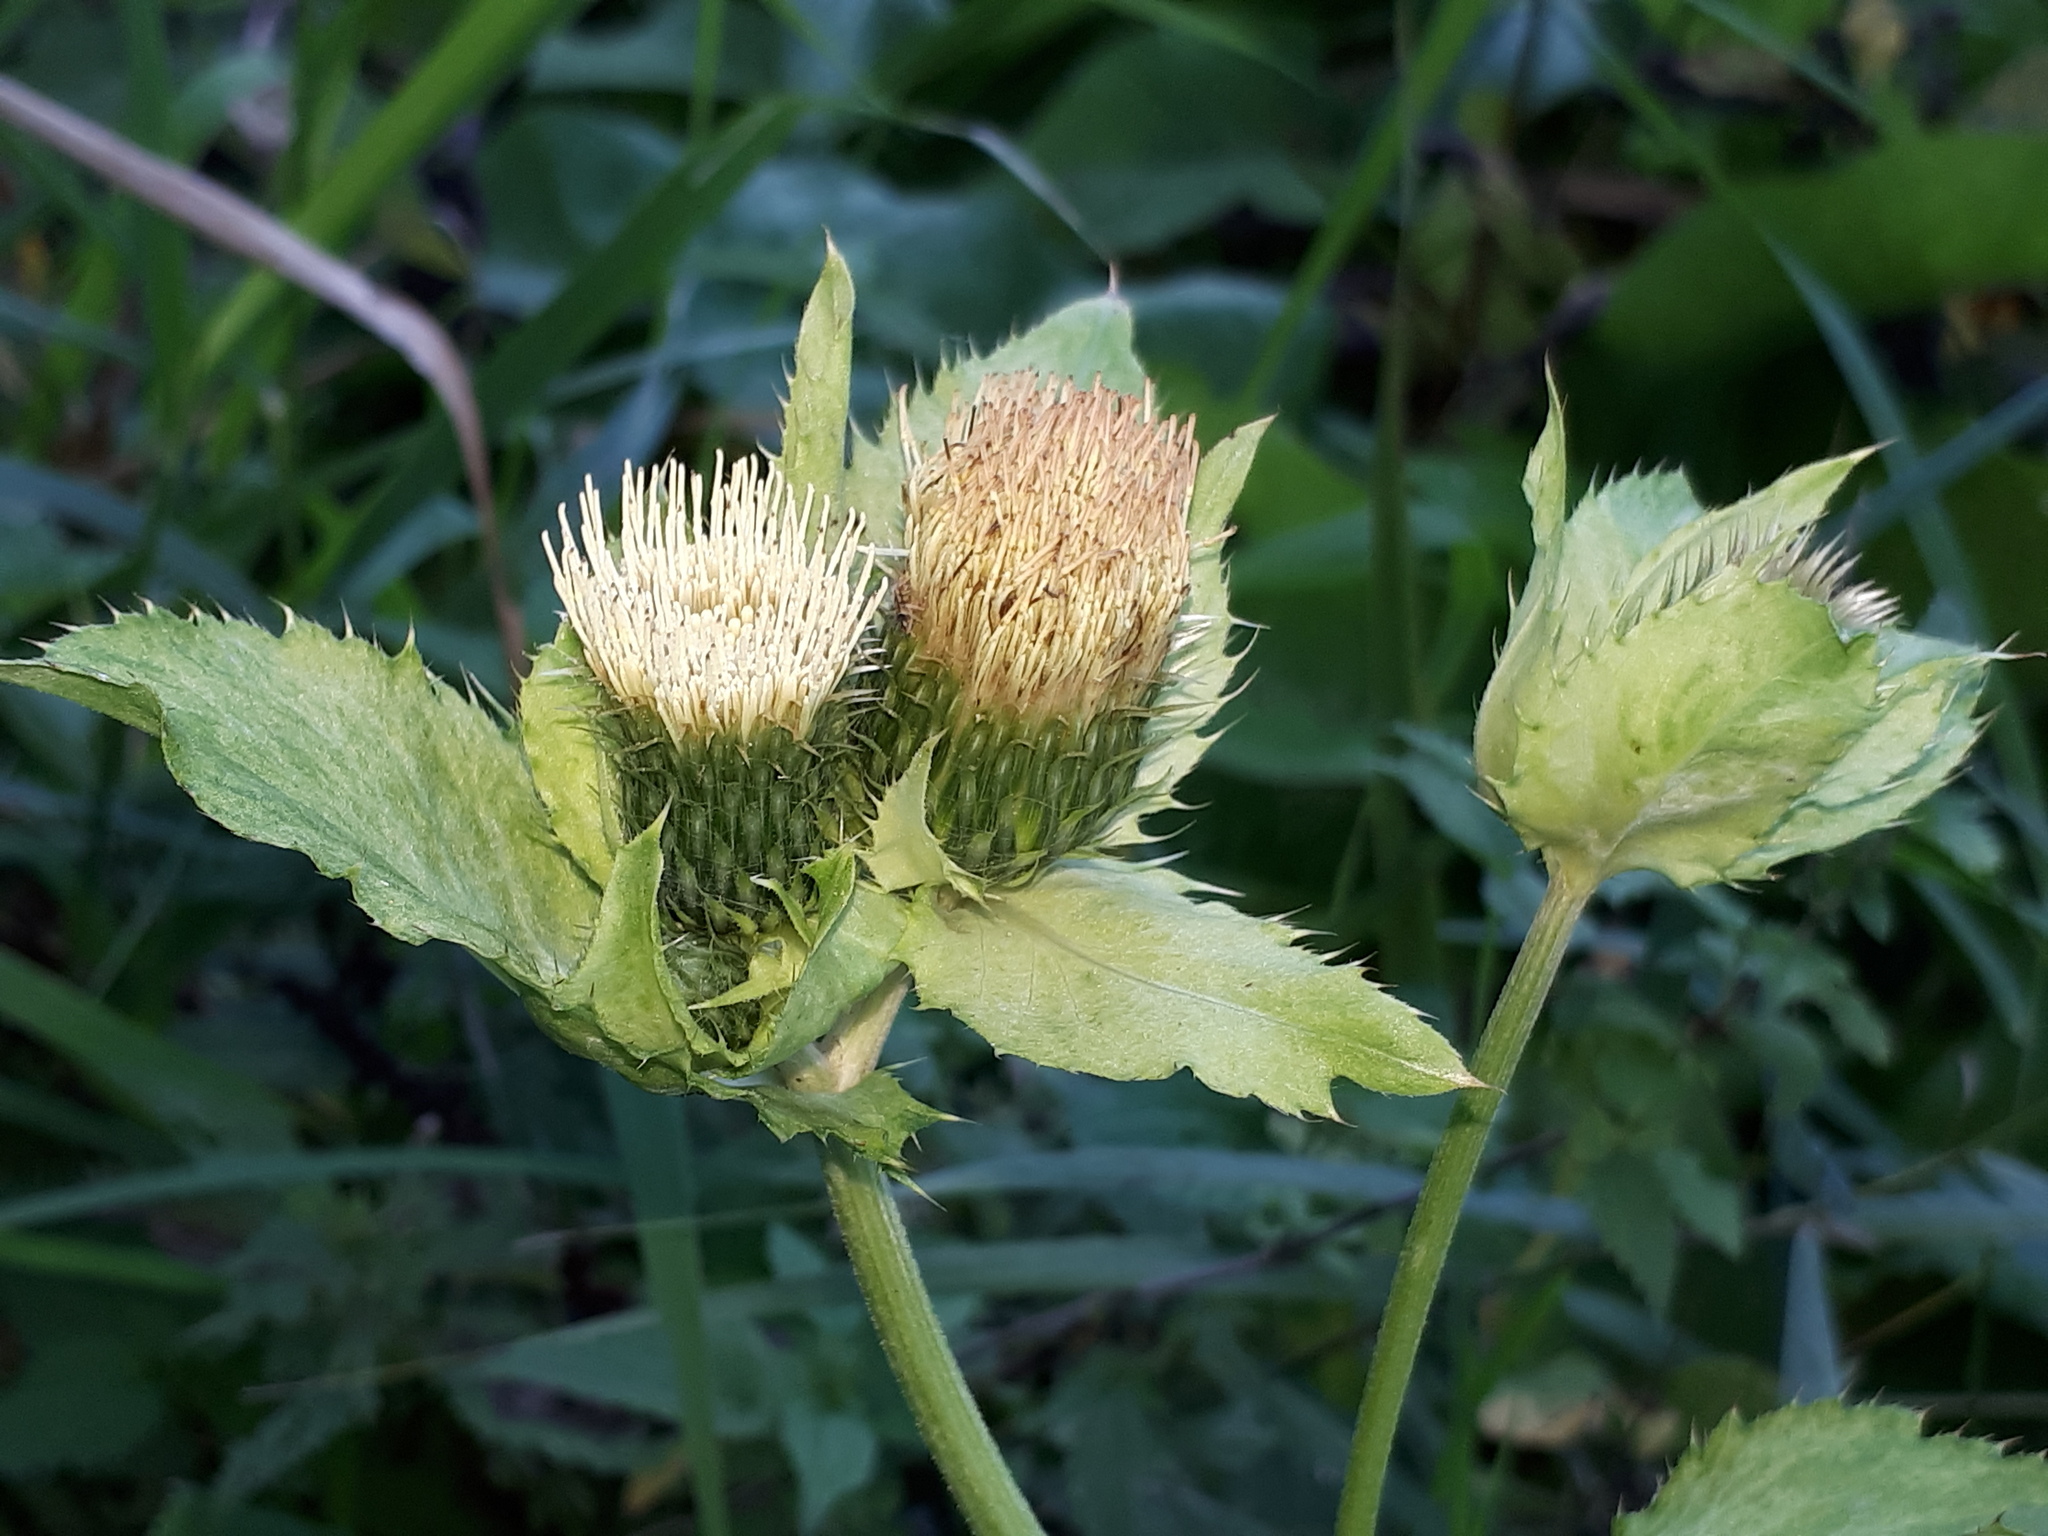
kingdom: Plantae
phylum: Tracheophyta
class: Magnoliopsida
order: Asterales
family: Asteraceae
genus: Cirsium
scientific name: Cirsium oleraceum
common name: Cabbage thistle
